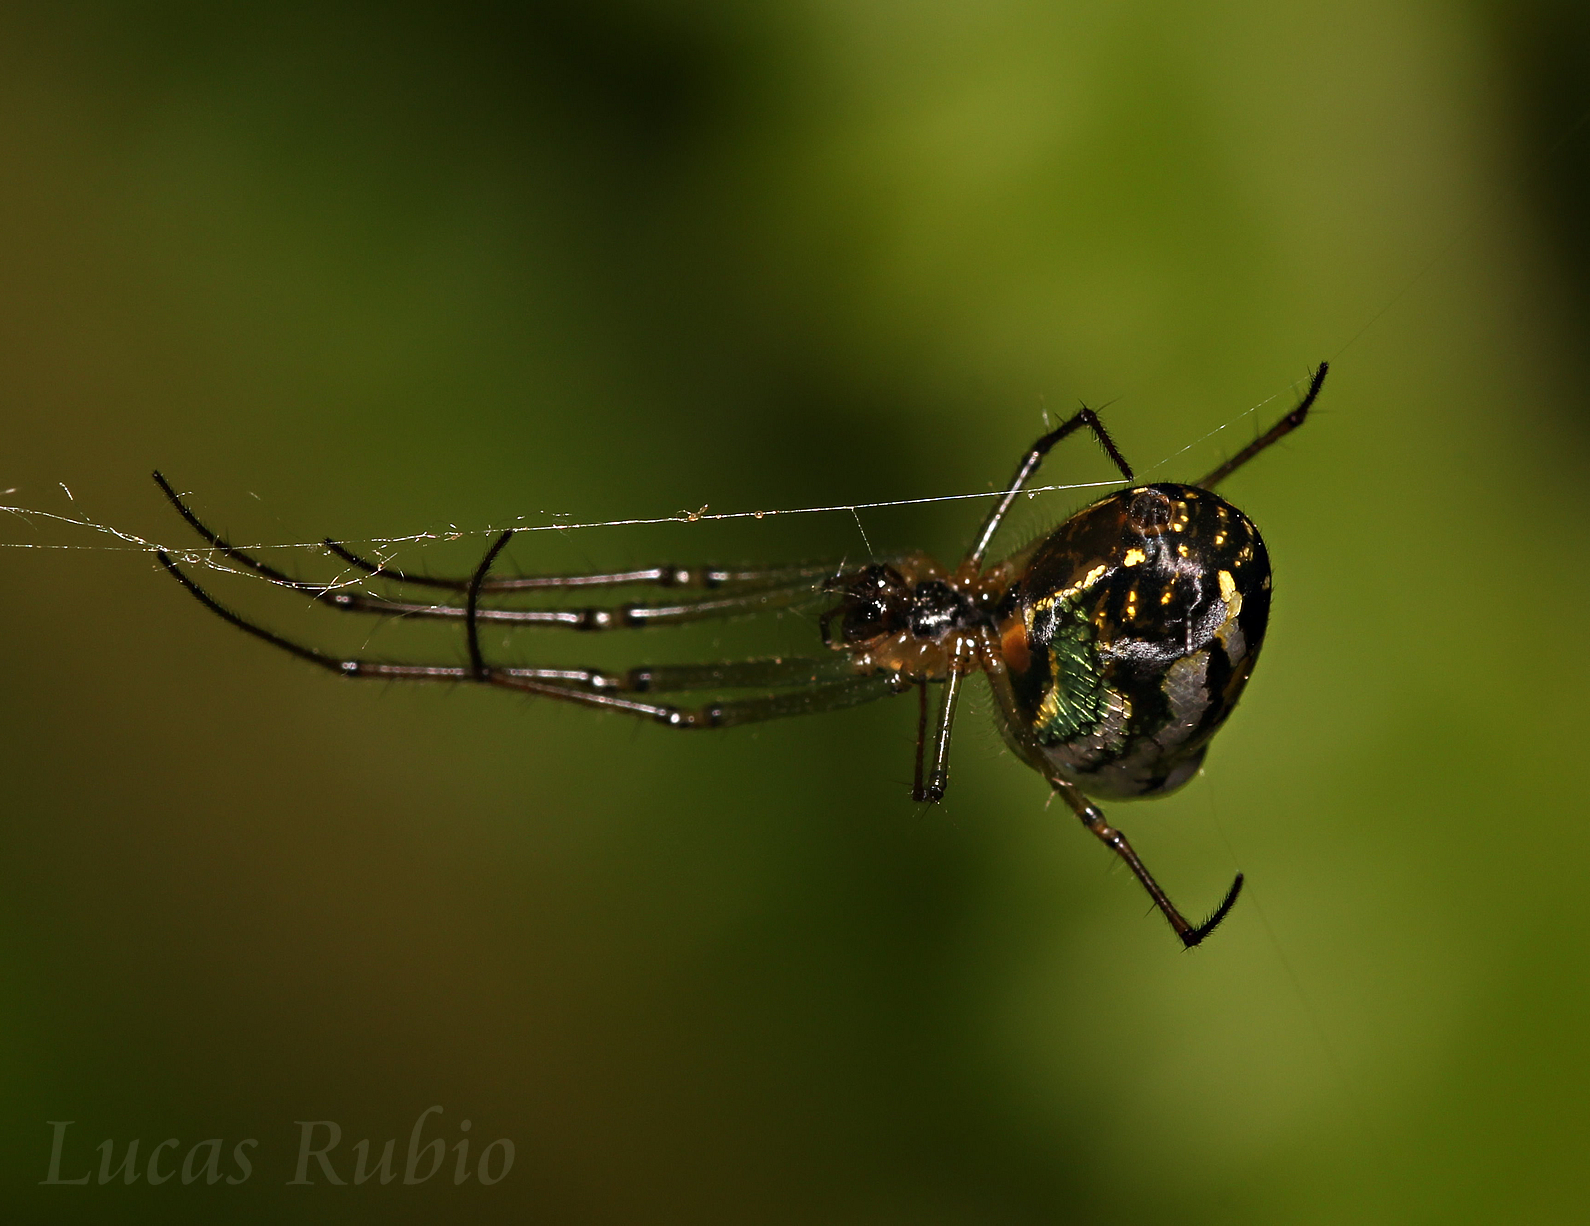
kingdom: Animalia
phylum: Arthropoda
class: Arachnida
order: Araneae
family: Tetragnathidae
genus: Leucauge
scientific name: Leucauge volupis
